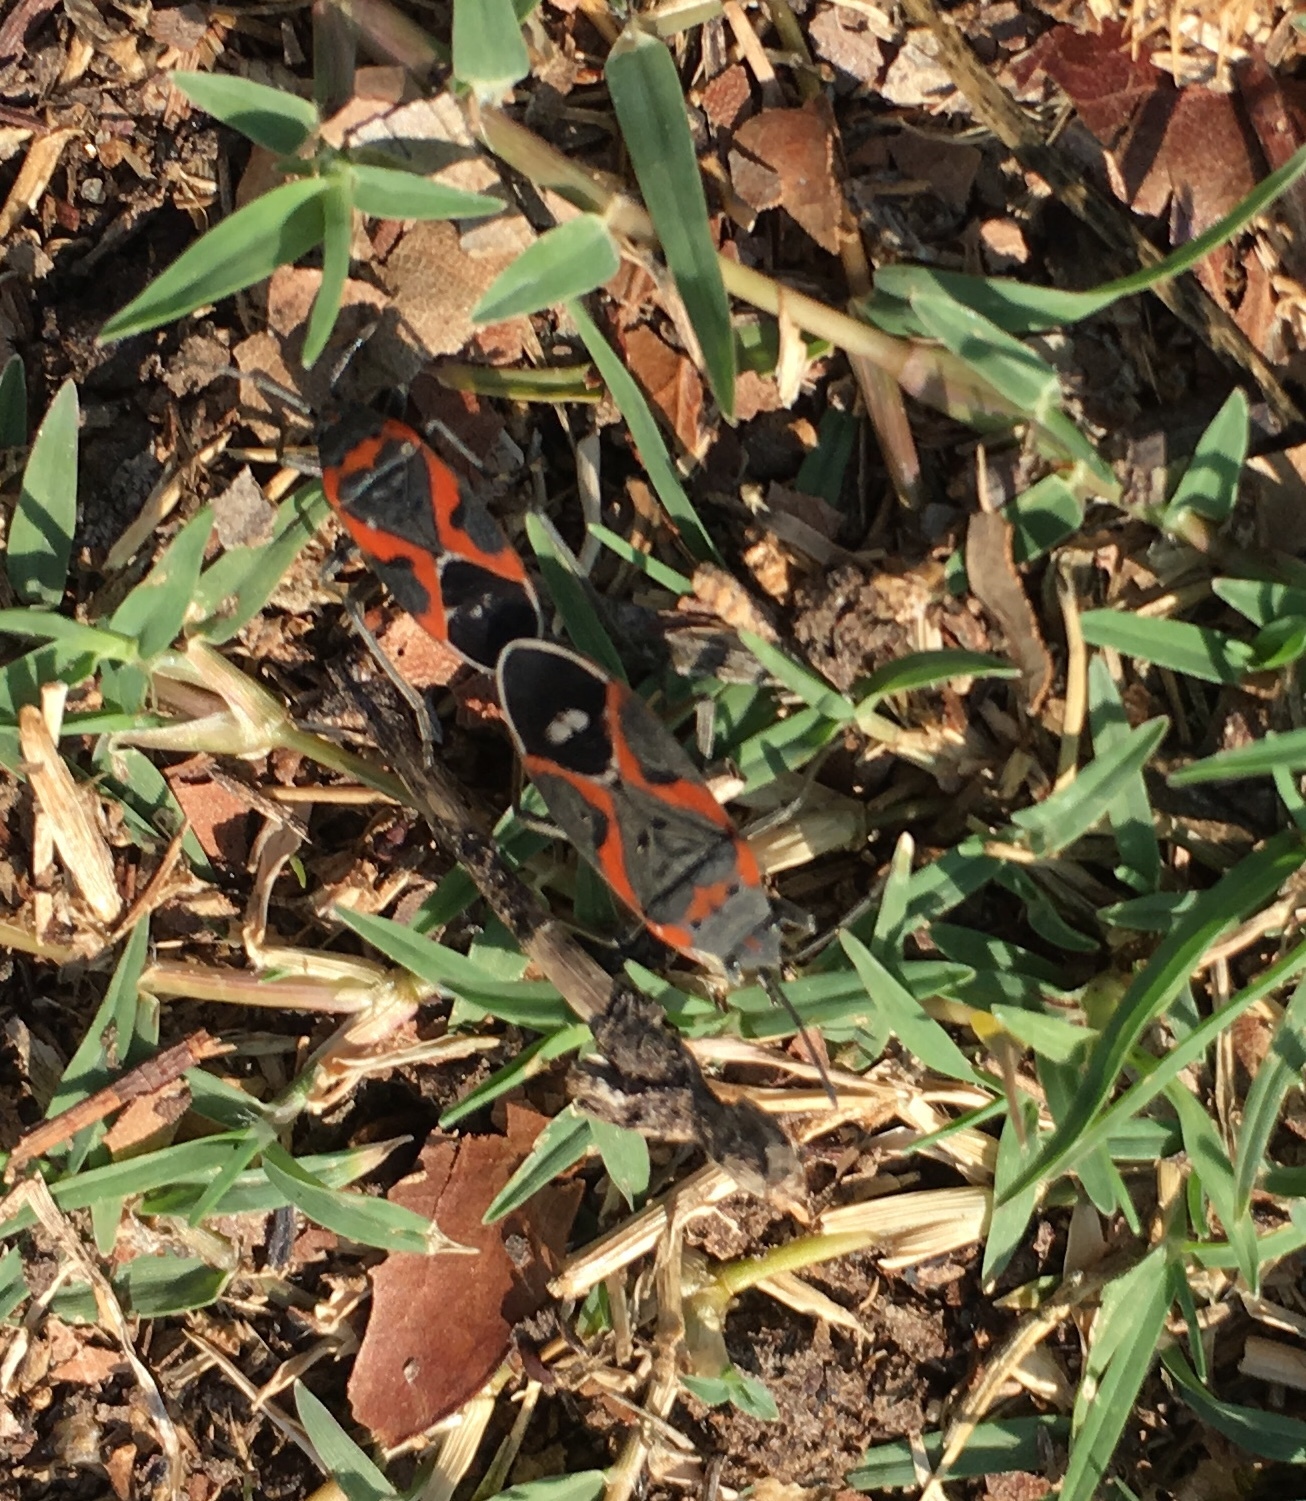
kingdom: Animalia
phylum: Arthropoda
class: Insecta
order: Hemiptera
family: Lygaeidae
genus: Lygaeus
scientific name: Lygaeus kalmii
